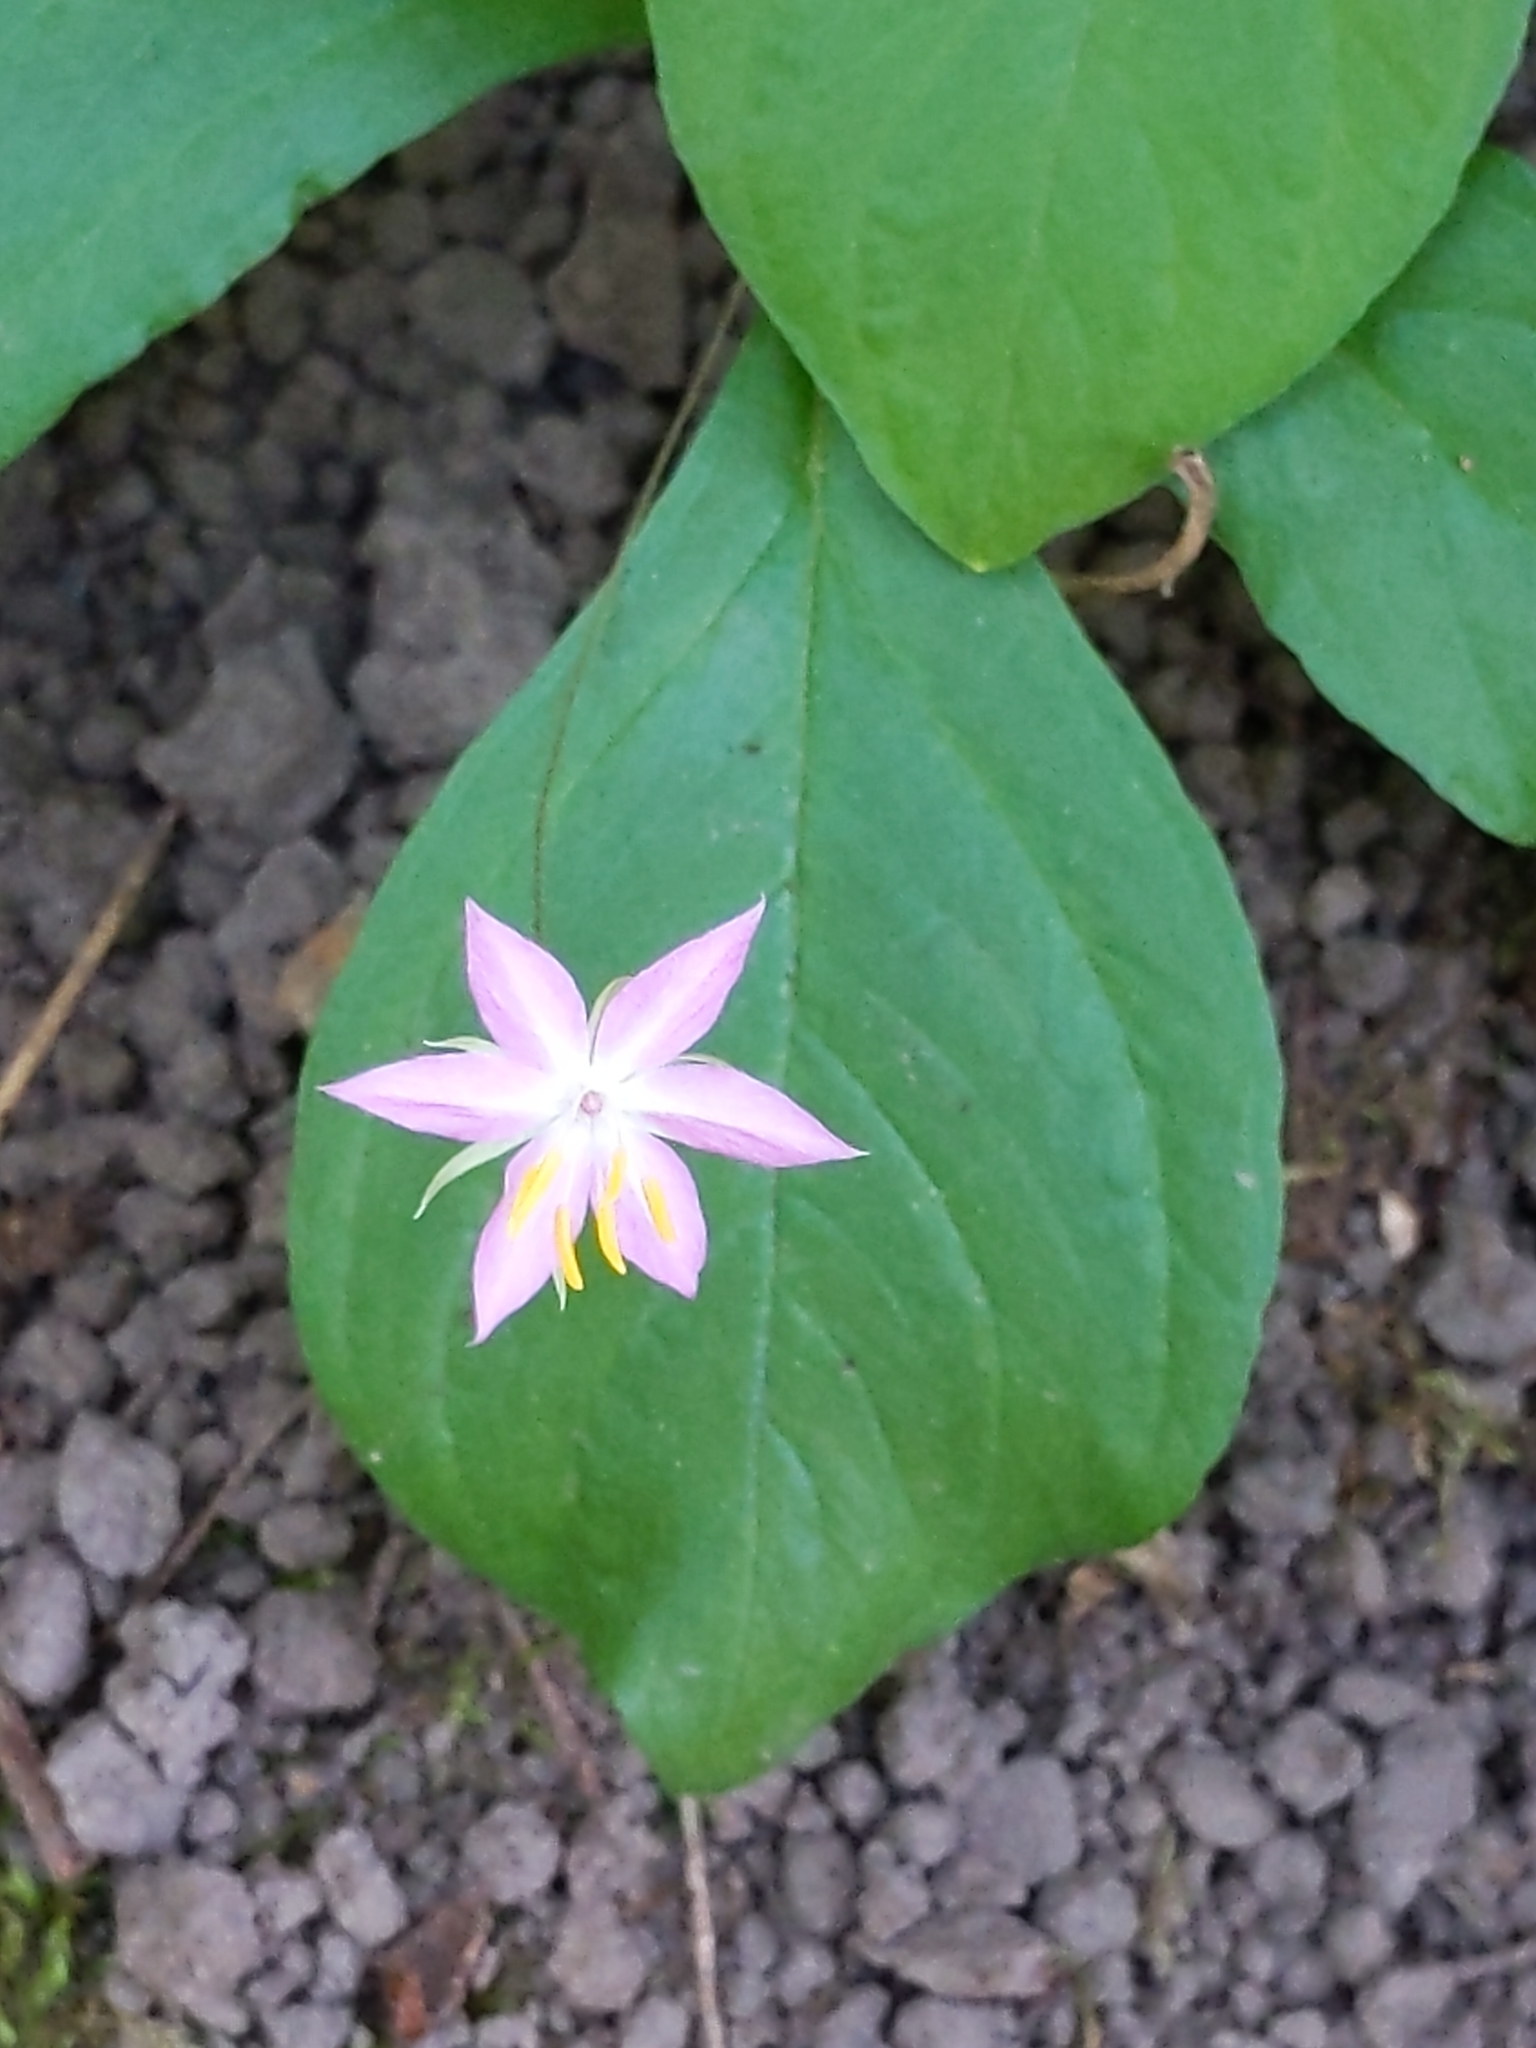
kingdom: Plantae
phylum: Tracheophyta
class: Magnoliopsida
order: Ericales
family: Primulaceae
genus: Lysimachia
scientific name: Lysimachia latifolia
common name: Pacific starflower
